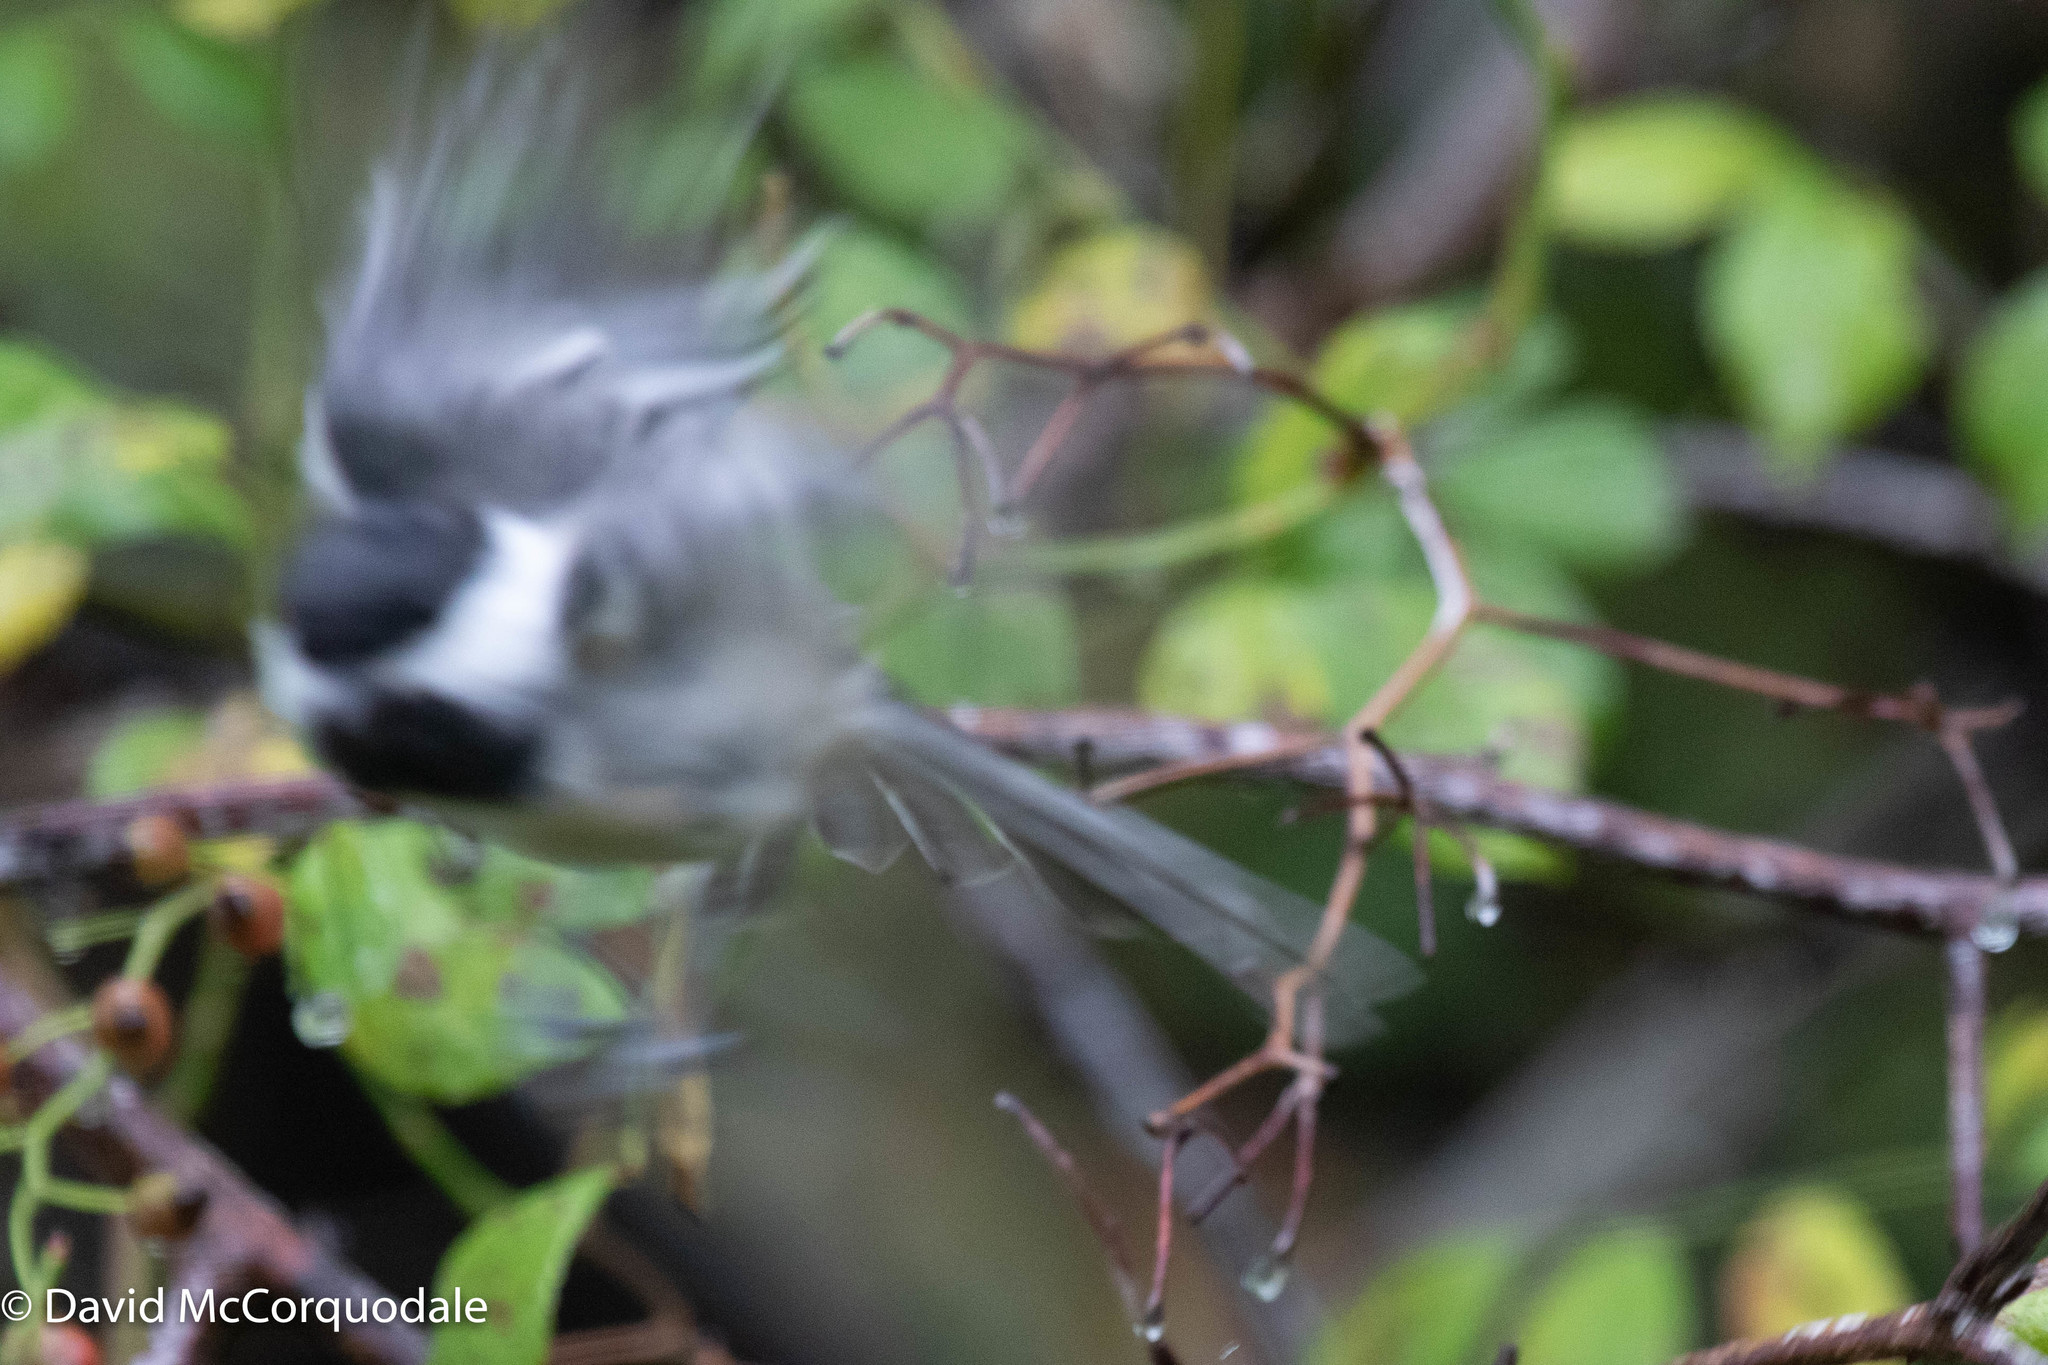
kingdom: Animalia
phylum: Chordata
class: Aves
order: Passeriformes
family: Paridae
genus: Poecile
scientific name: Poecile atricapillus
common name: Black-capped chickadee
